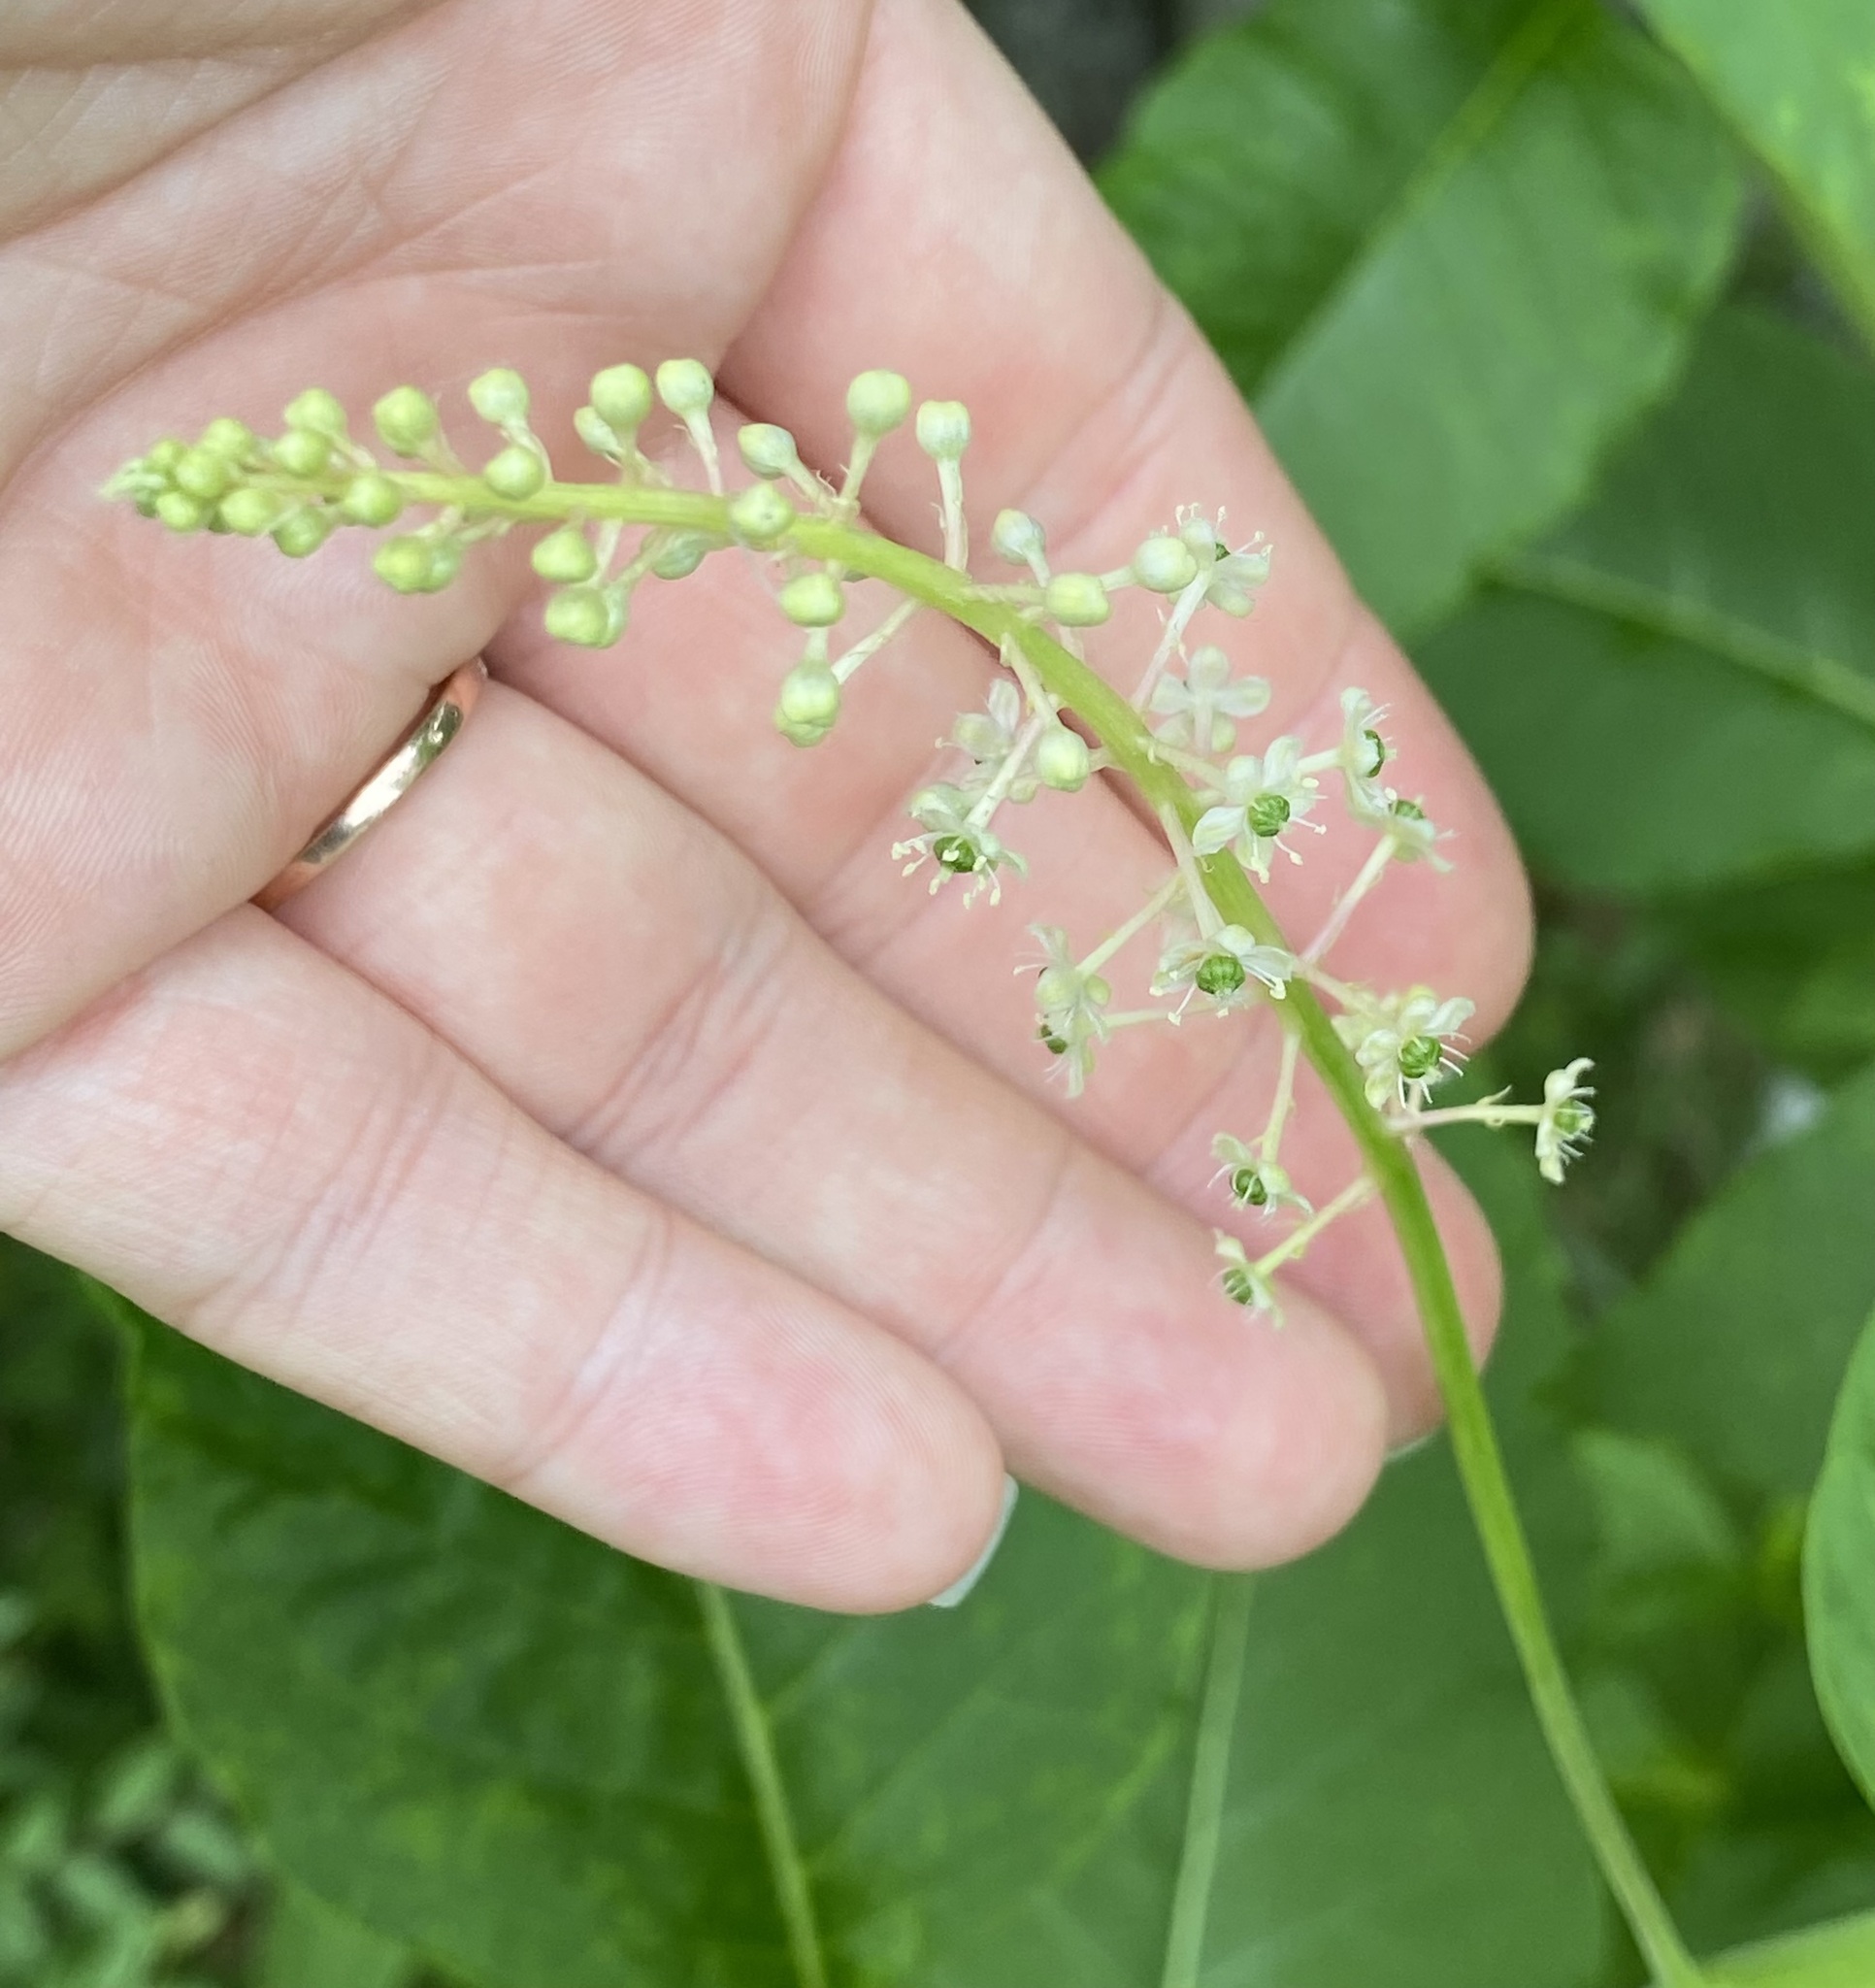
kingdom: Plantae
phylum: Tracheophyta
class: Magnoliopsida
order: Caryophyllales
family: Phytolaccaceae
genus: Phytolacca
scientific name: Phytolacca americana
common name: American pokeweed
